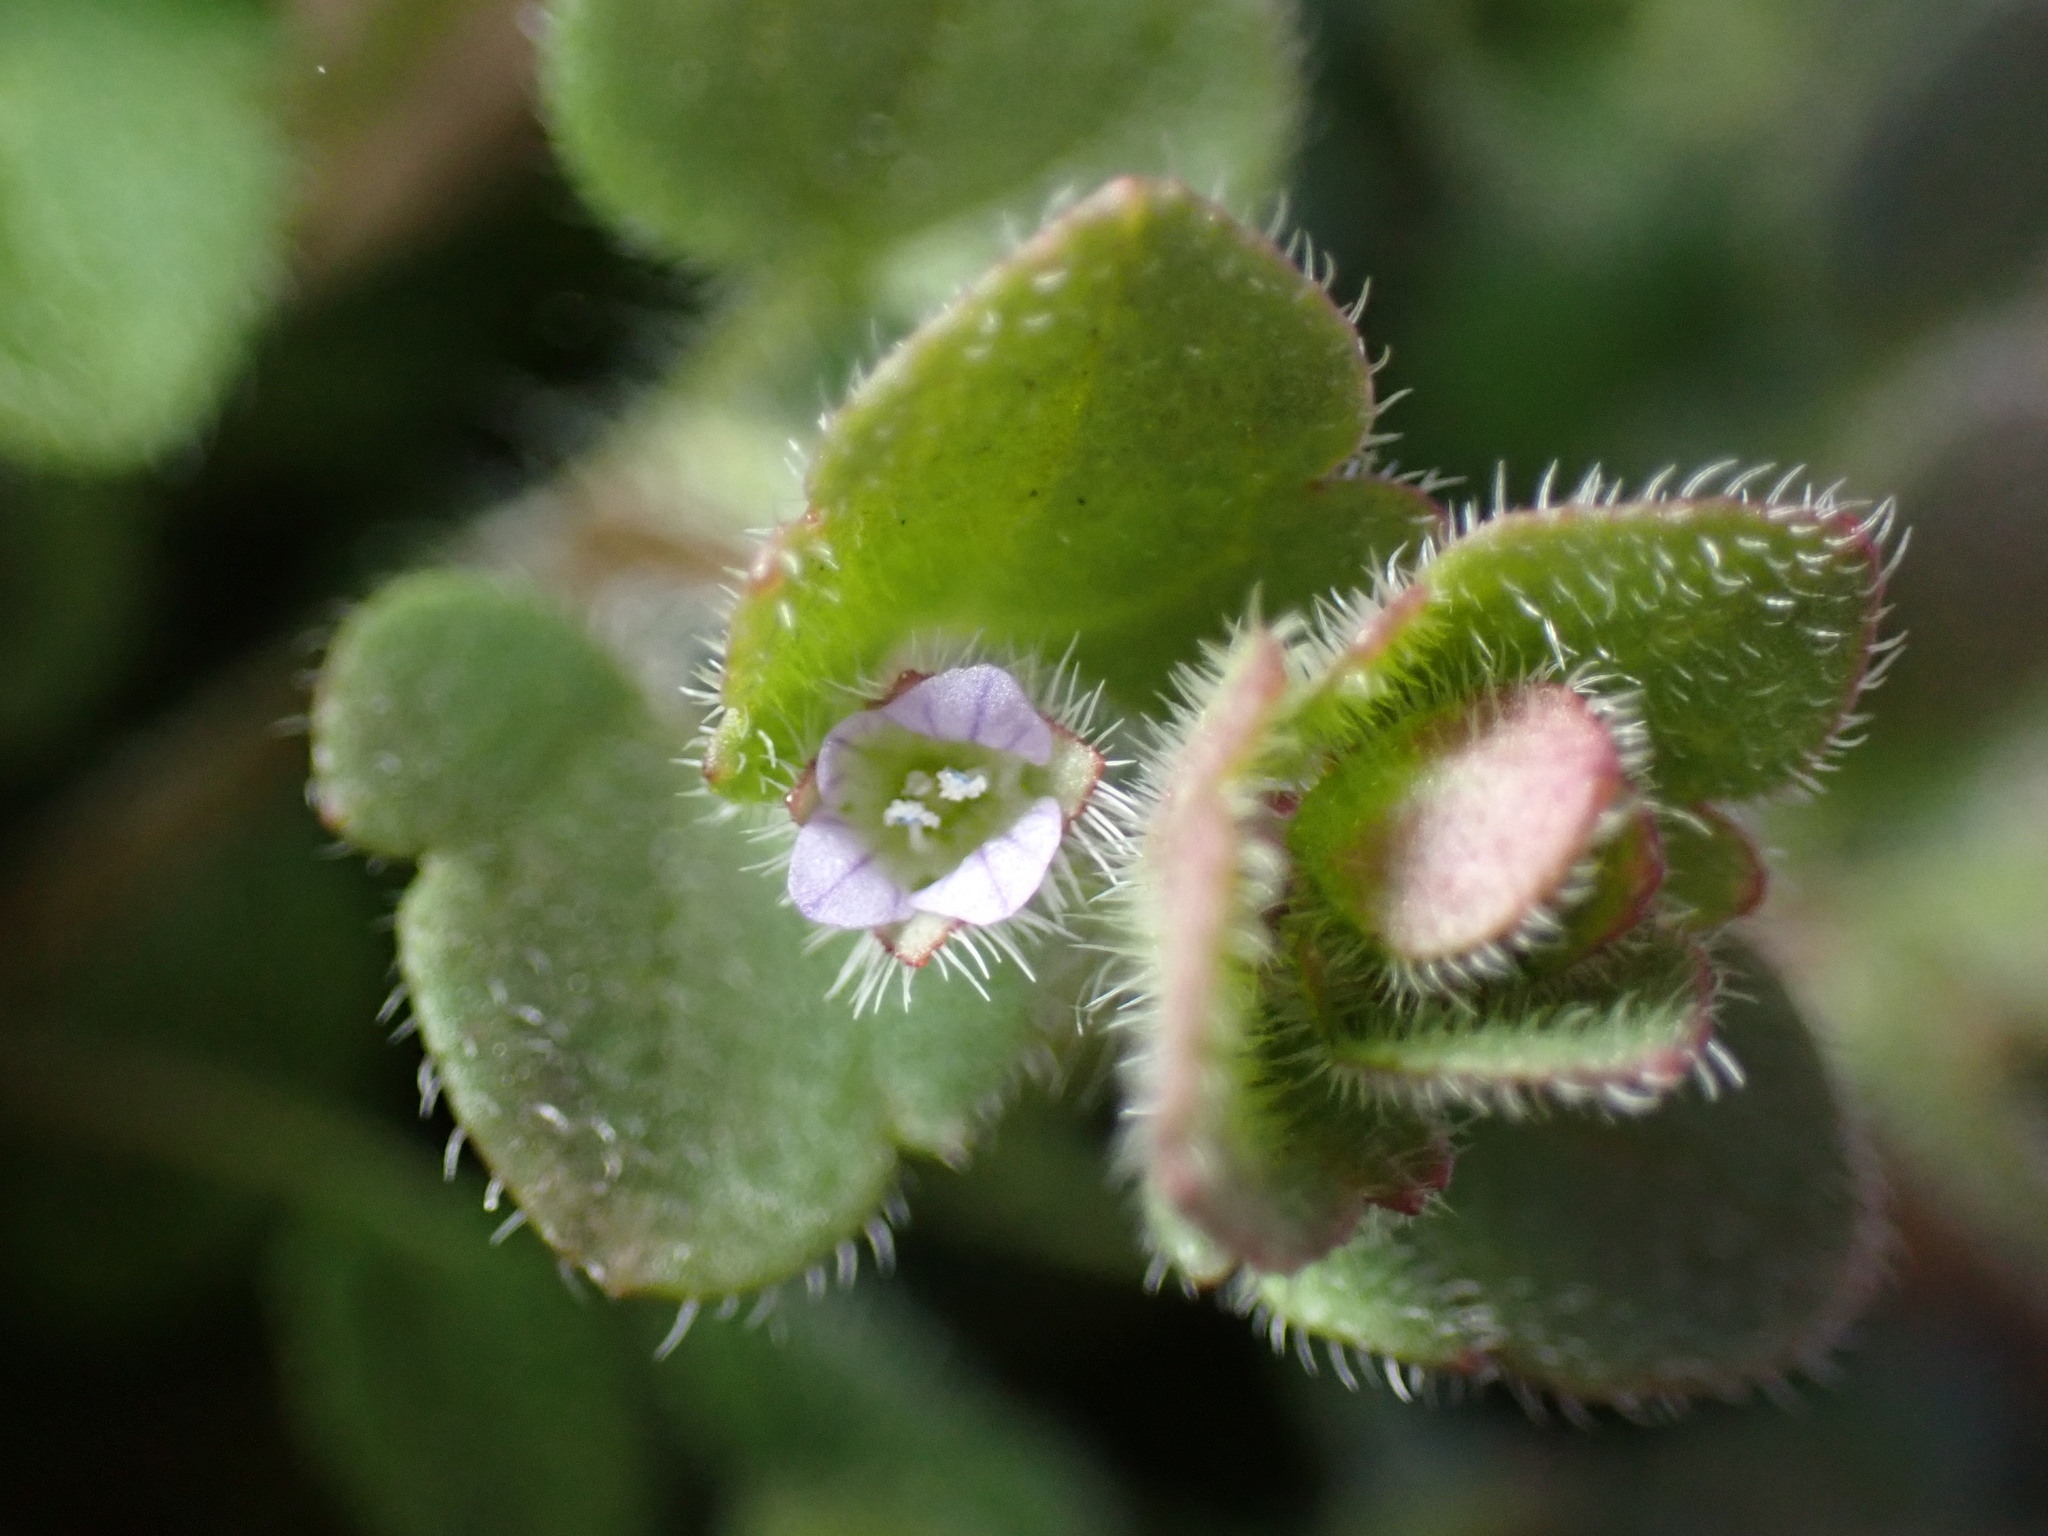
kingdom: Plantae
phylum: Tracheophyta
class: Magnoliopsida
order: Lamiales
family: Plantaginaceae
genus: Veronica
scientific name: Veronica sublobata
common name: False ivy-leaved speedwell
